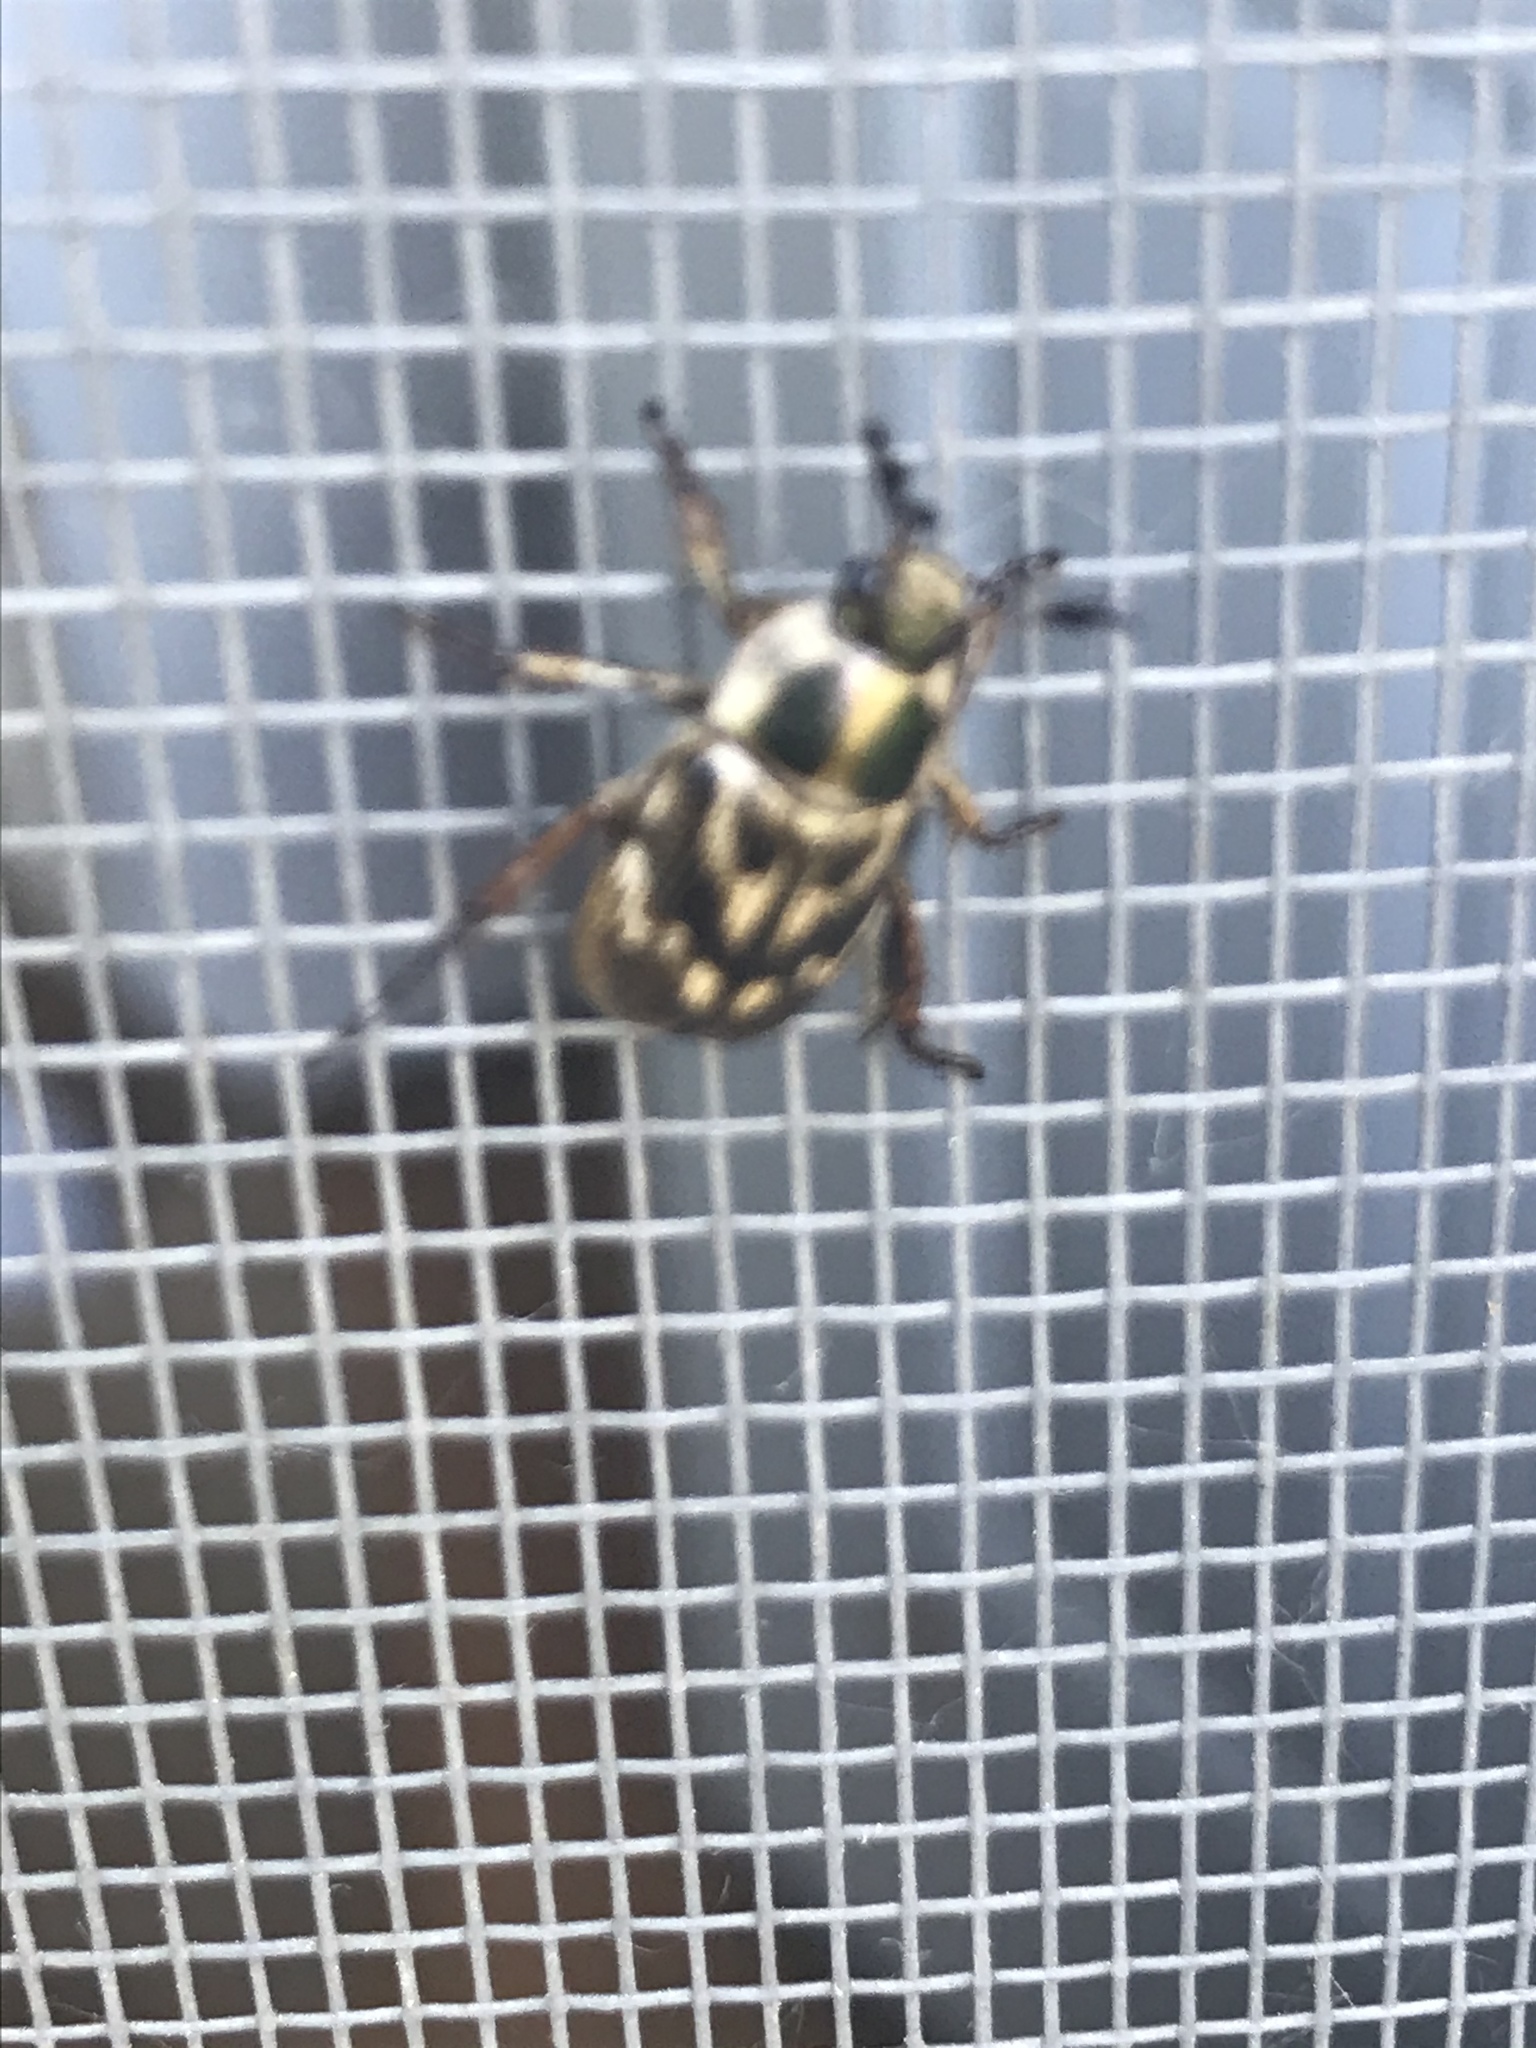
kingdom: Animalia
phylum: Arthropoda
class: Insecta
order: Coleoptera
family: Scarabaeidae
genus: Exomala
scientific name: Exomala orientalis
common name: Oriental beetle
